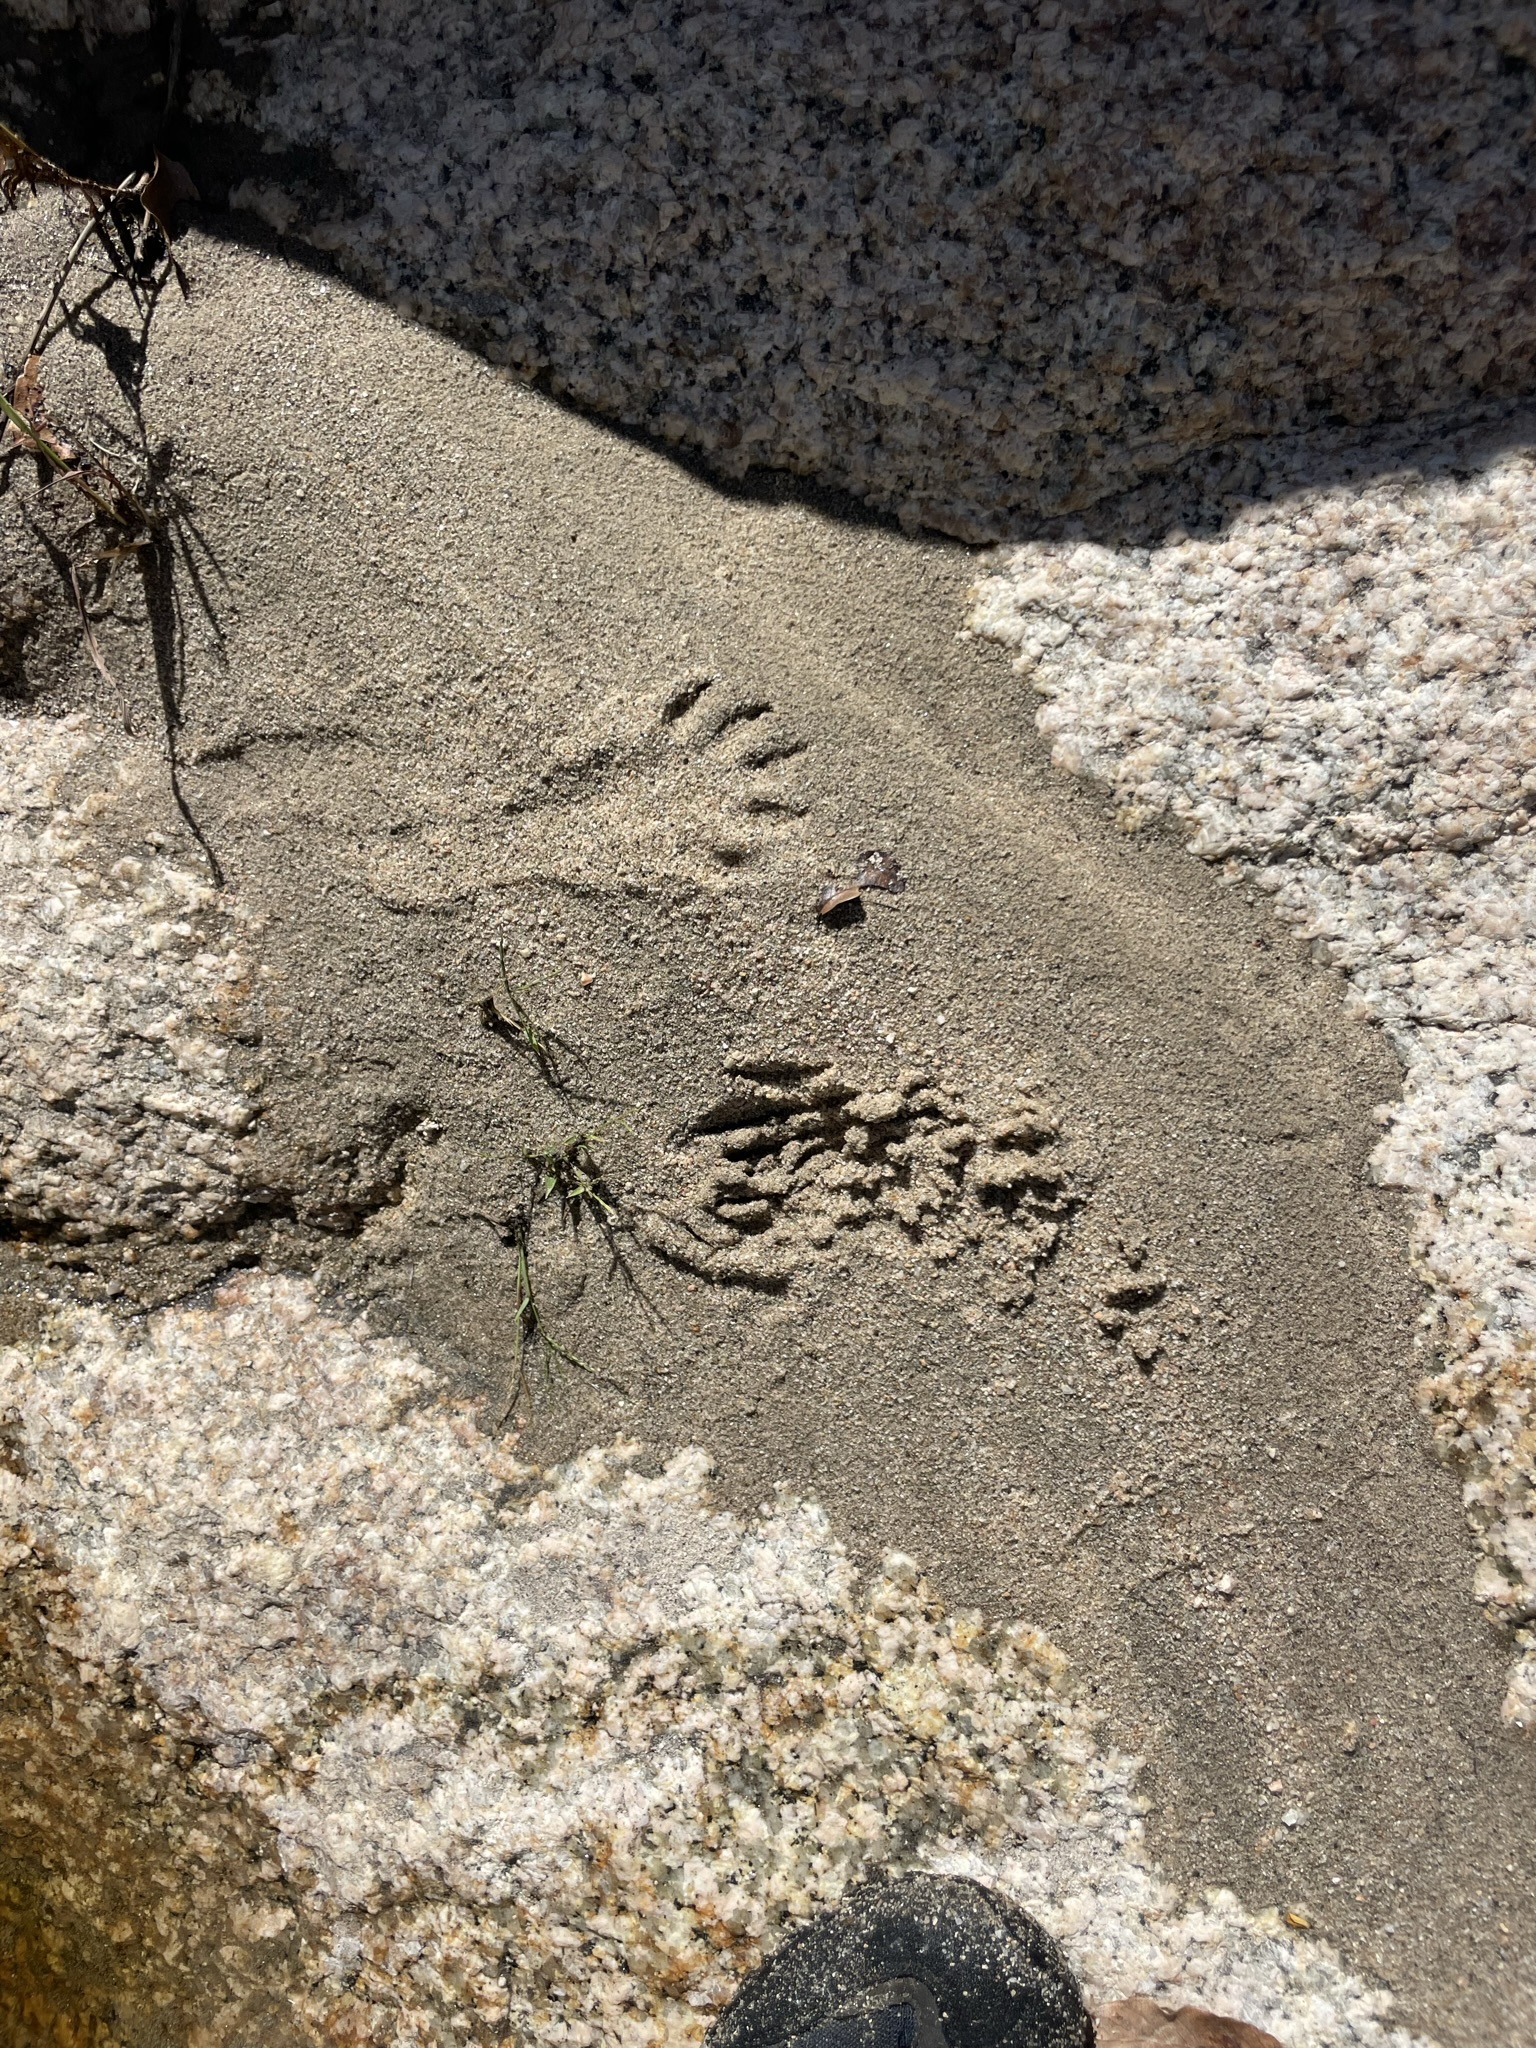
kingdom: Animalia
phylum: Chordata
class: Mammalia
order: Carnivora
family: Procyonidae
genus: Procyon
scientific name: Procyon lotor
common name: Raccoon
